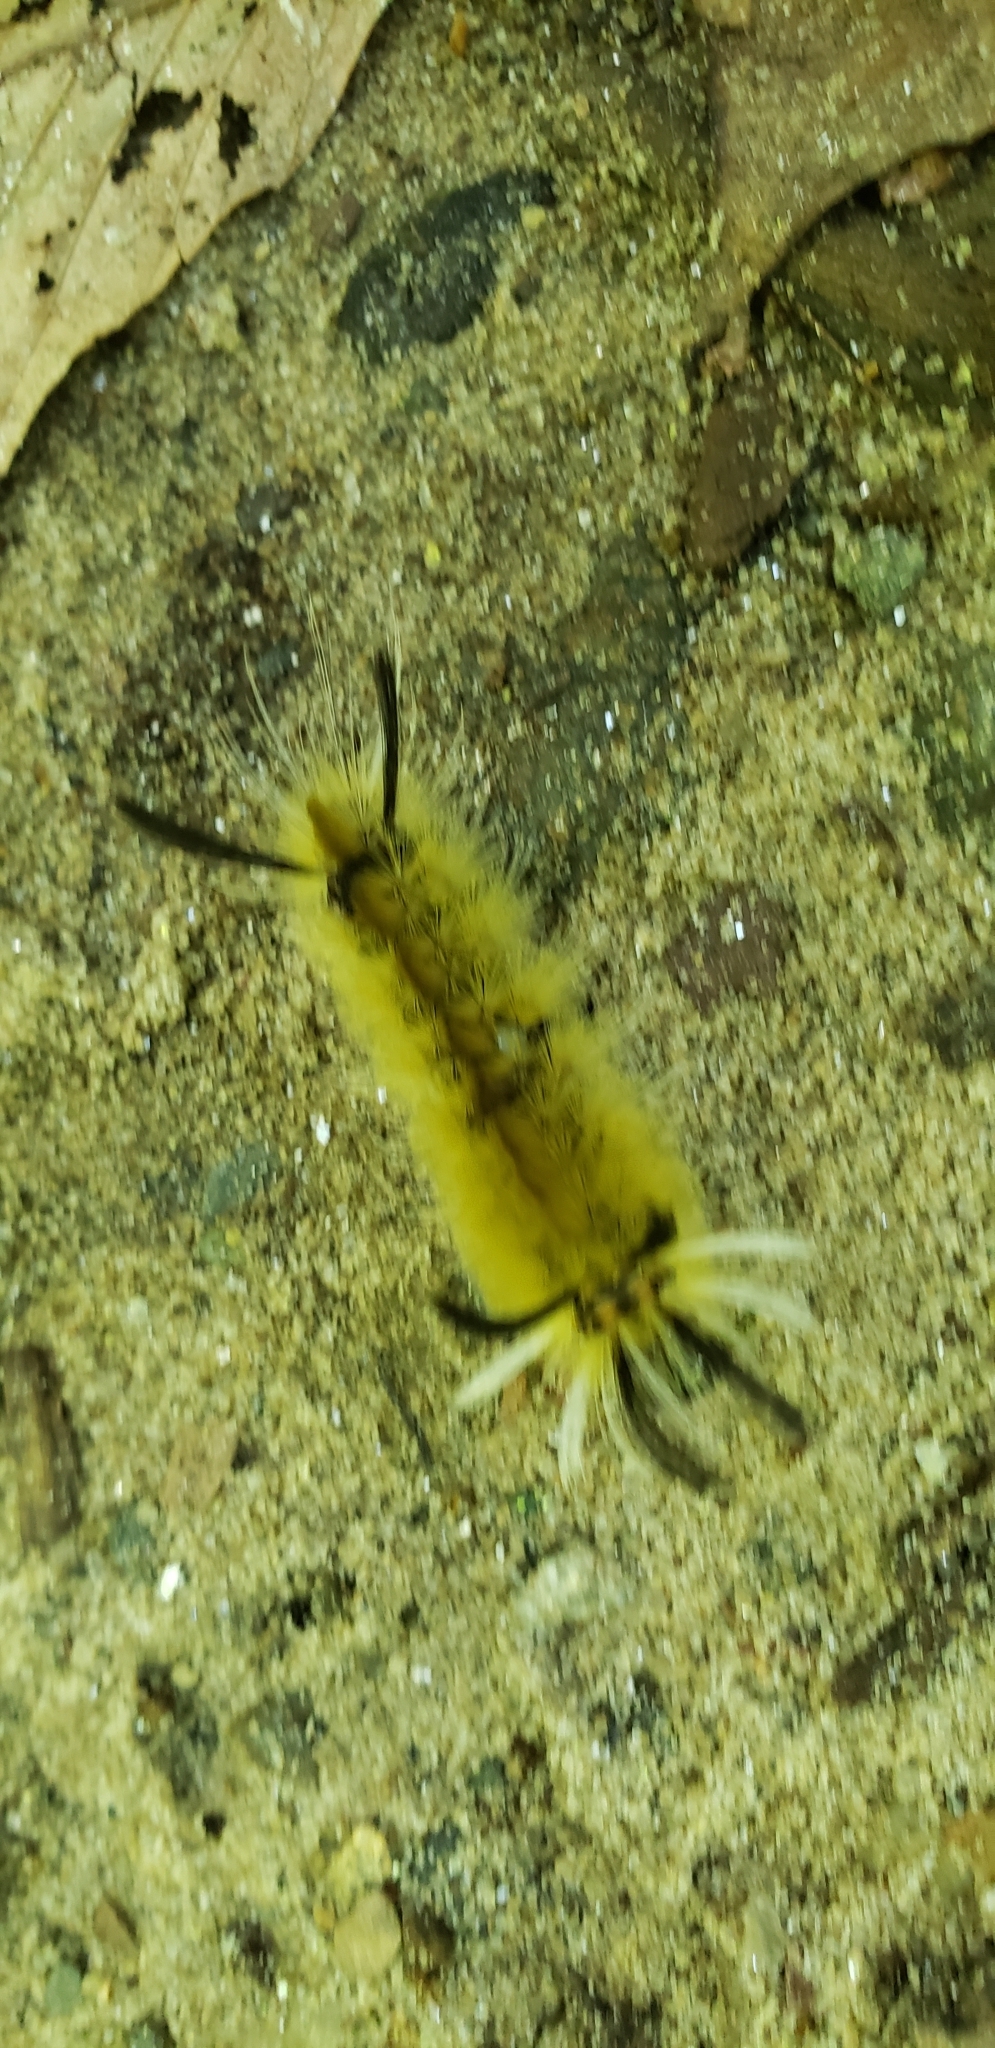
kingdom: Animalia
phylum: Arthropoda
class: Insecta
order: Lepidoptera
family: Erebidae
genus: Halysidota
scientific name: Halysidota tessellaris
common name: Banded tussock moth
